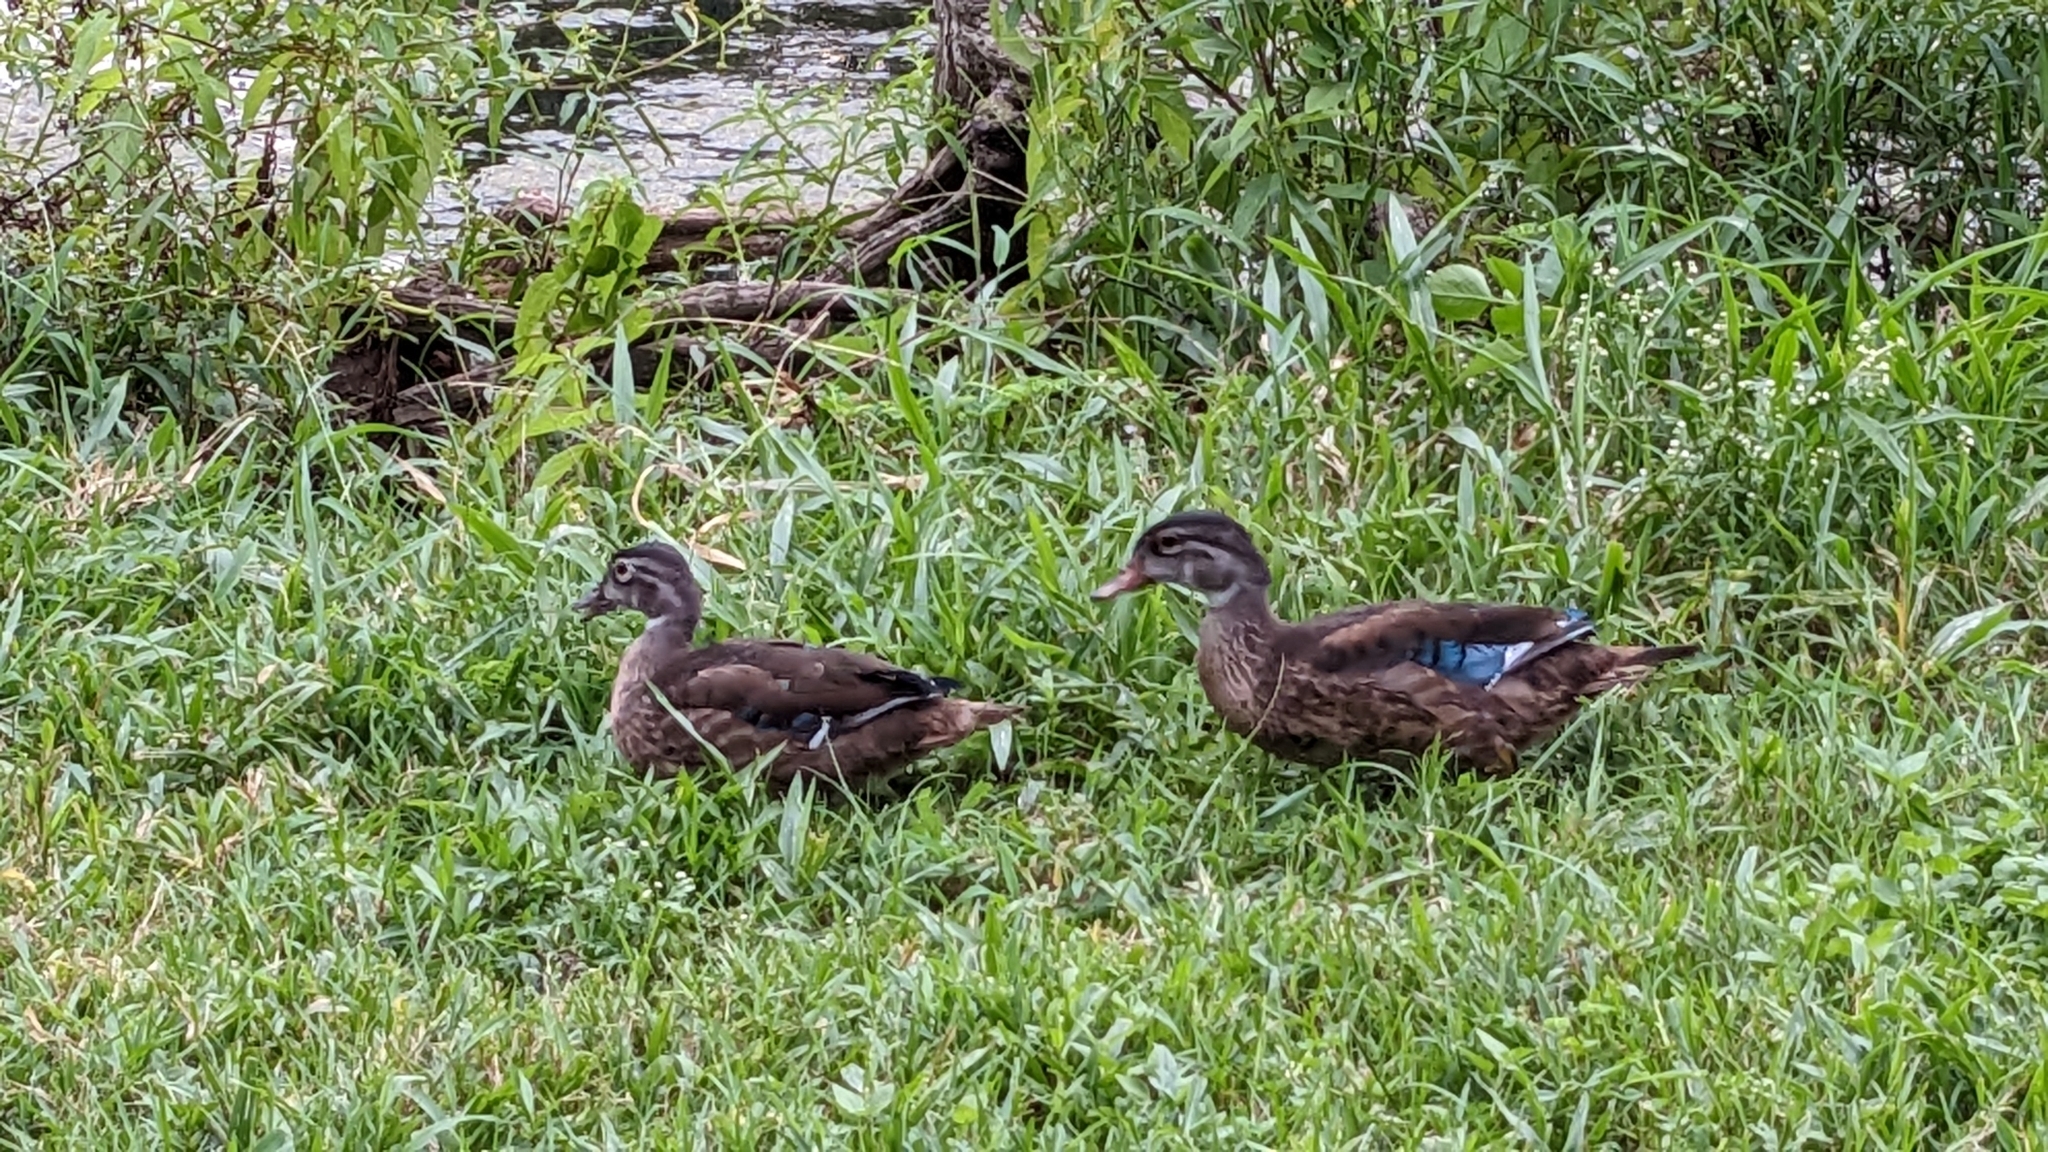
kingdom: Animalia
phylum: Chordata
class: Aves
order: Anseriformes
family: Anatidae
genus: Aix
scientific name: Aix sponsa
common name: Wood duck
